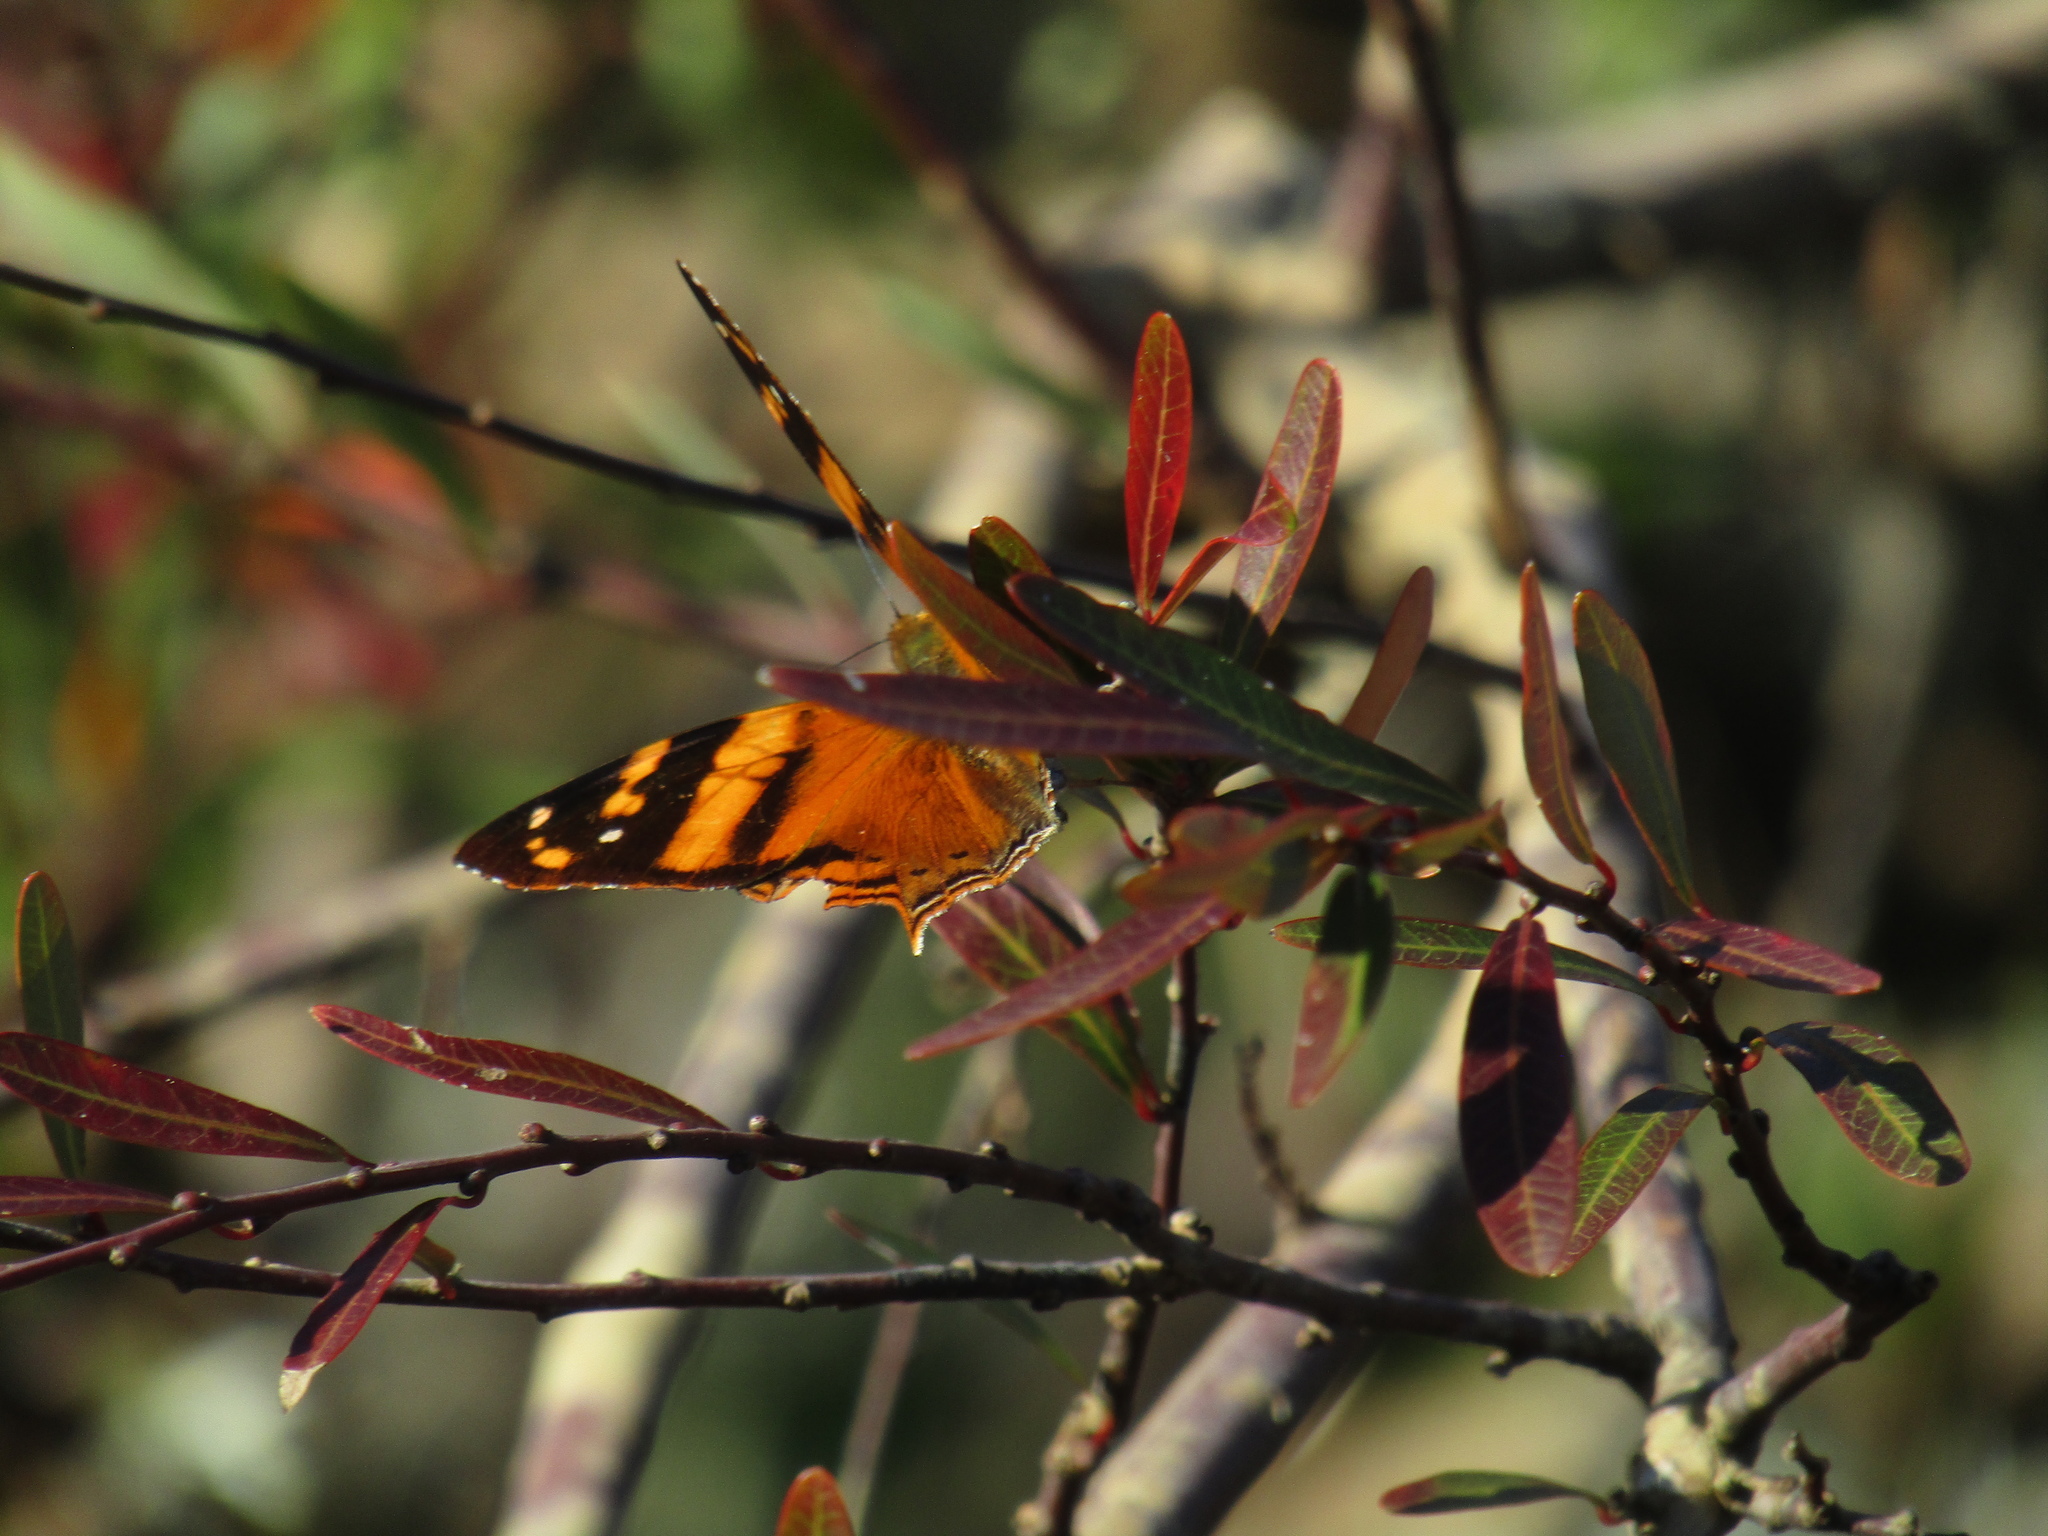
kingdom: Animalia
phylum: Arthropoda
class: Insecta
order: Lepidoptera
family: Nymphalidae
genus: Hypanartia
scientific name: Hypanartia lethe
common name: Orange mapwing
